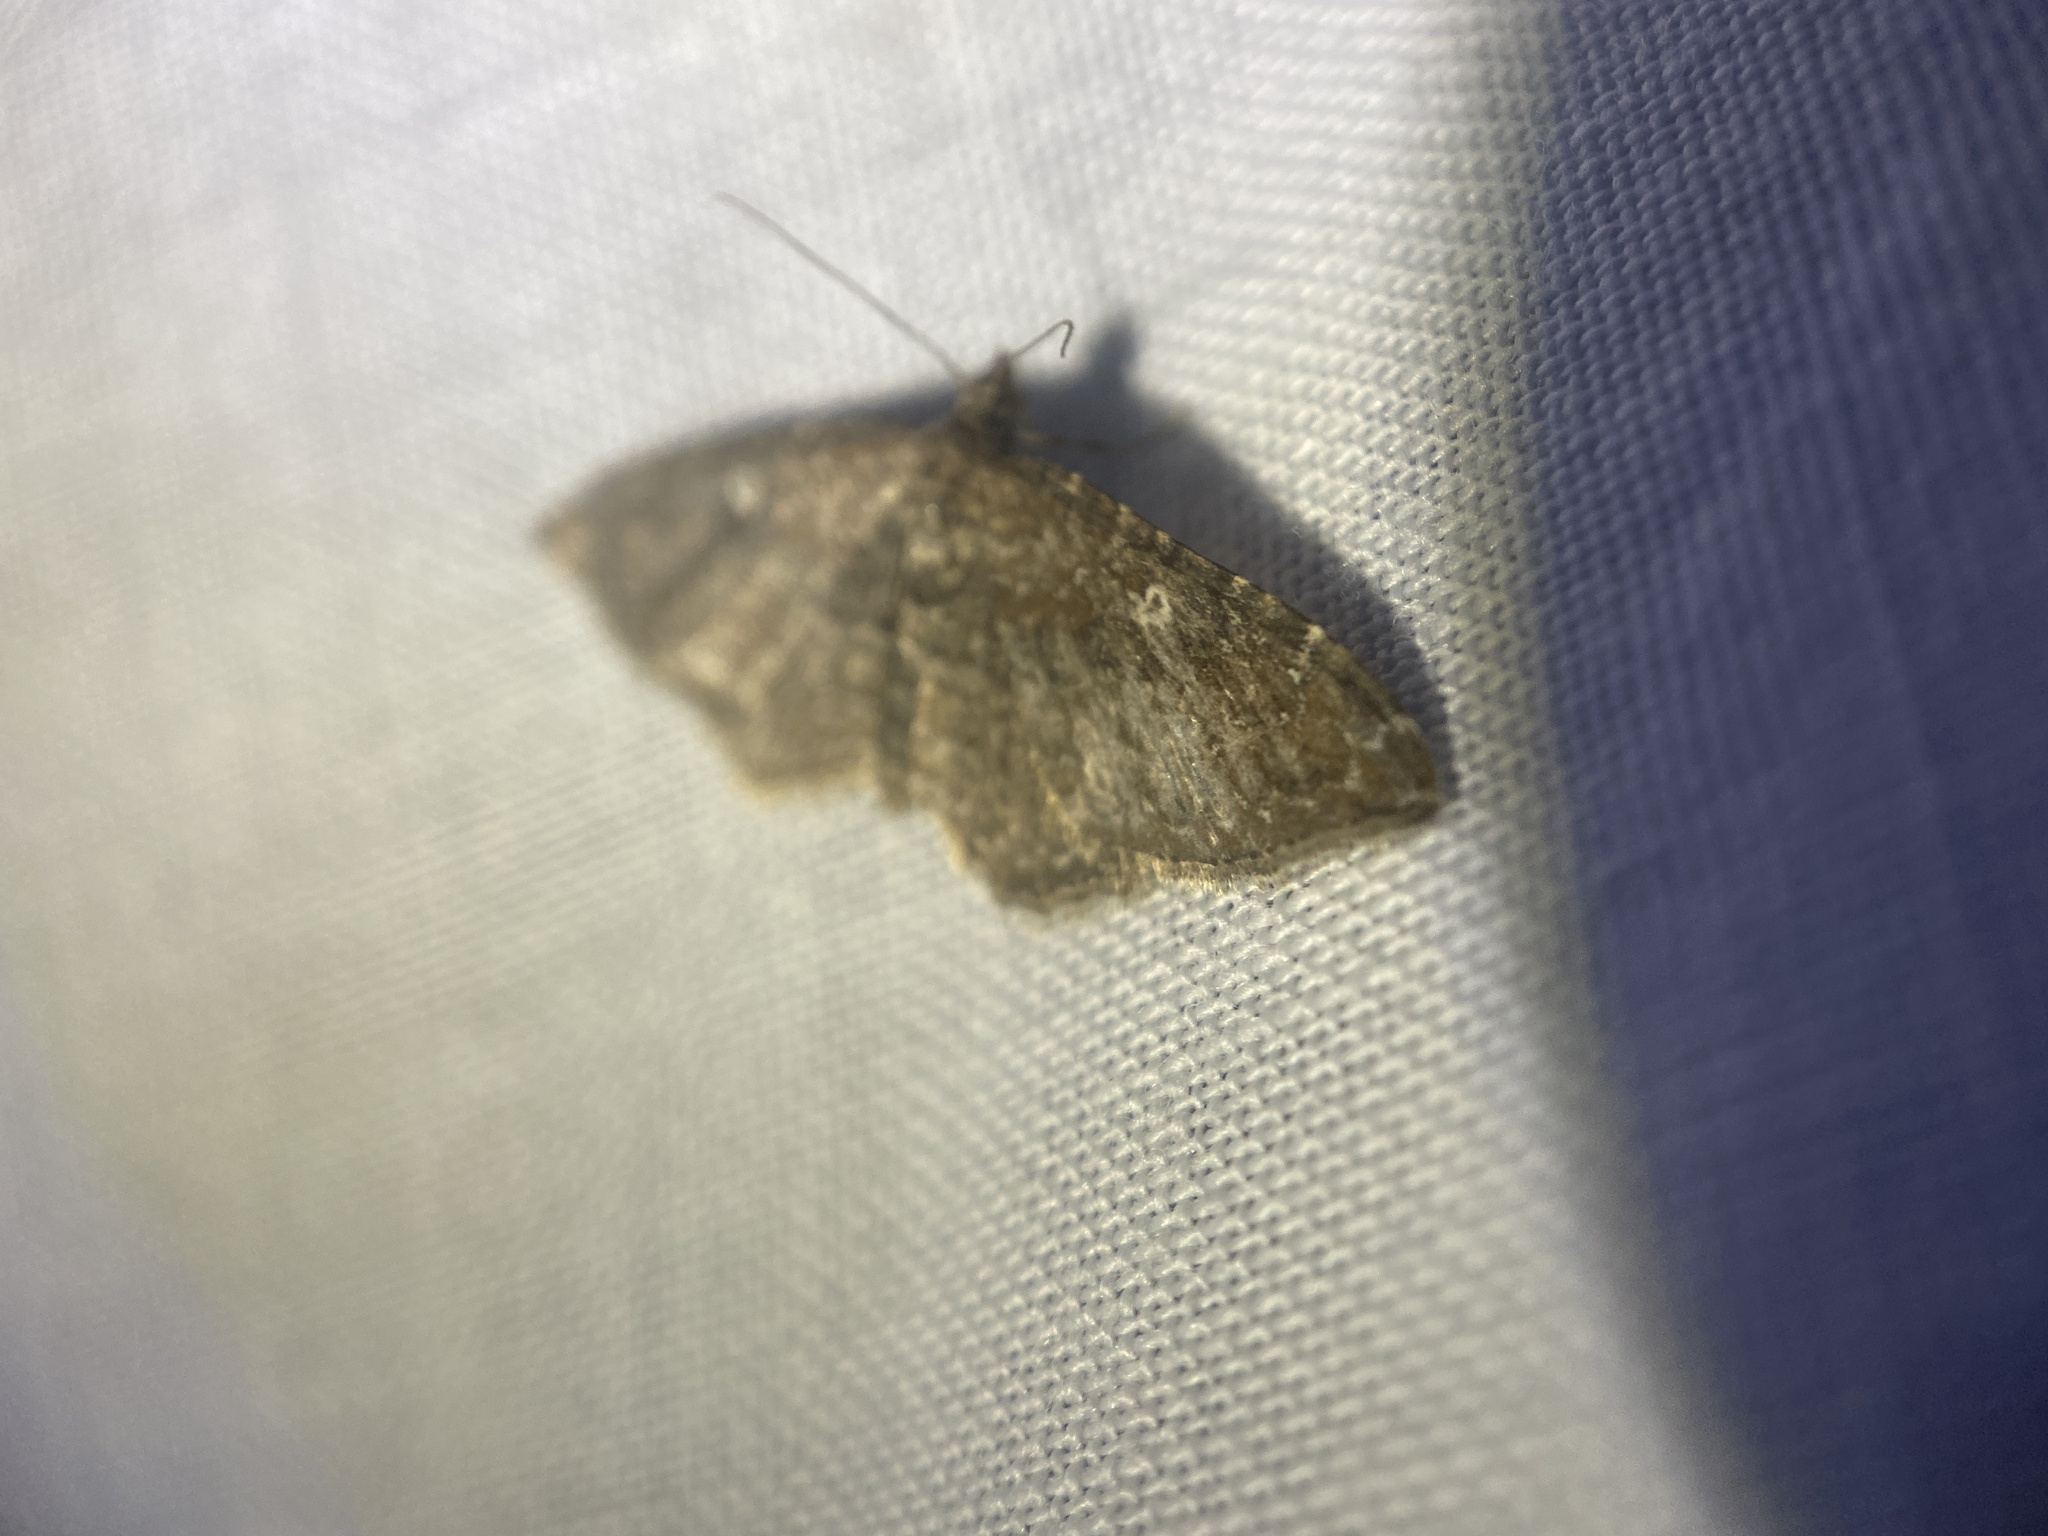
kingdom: Animalia
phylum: Arthropoda
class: Insecta
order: Lepidoptera
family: Geometridae
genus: Orthonama
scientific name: Orthonama obstipata
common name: The gem
